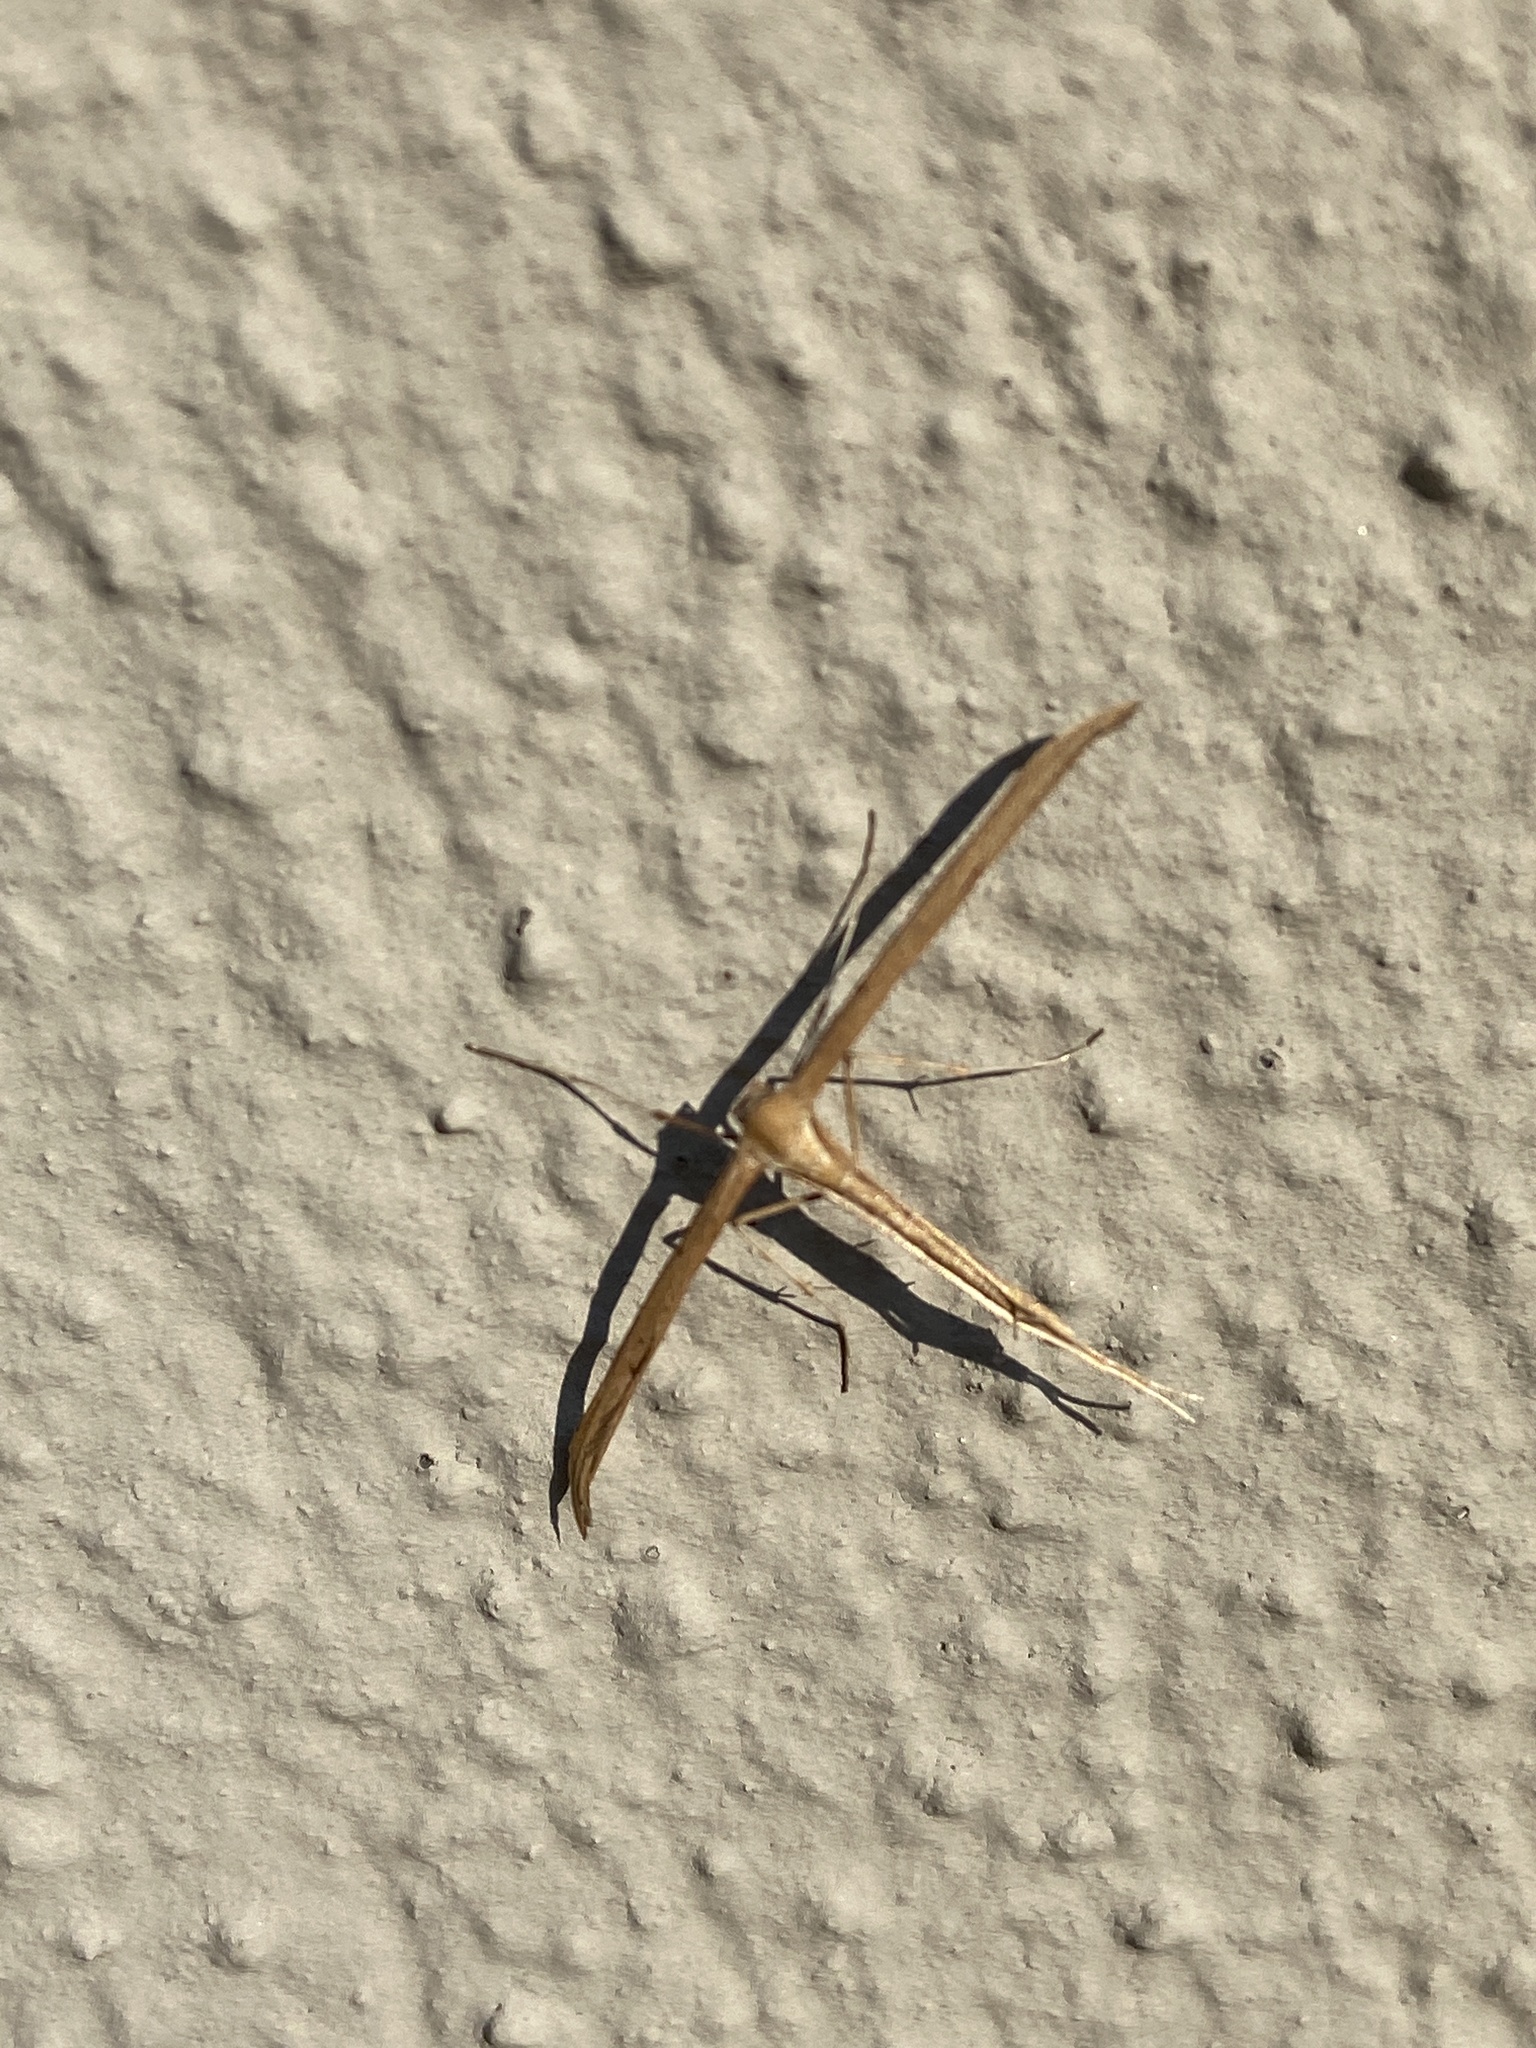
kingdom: Animalia
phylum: Arthropoda
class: Insecta
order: Lepidoptera
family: Pterophoridae
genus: Emmelina
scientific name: Emmelina monodactyla
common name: Common plume
